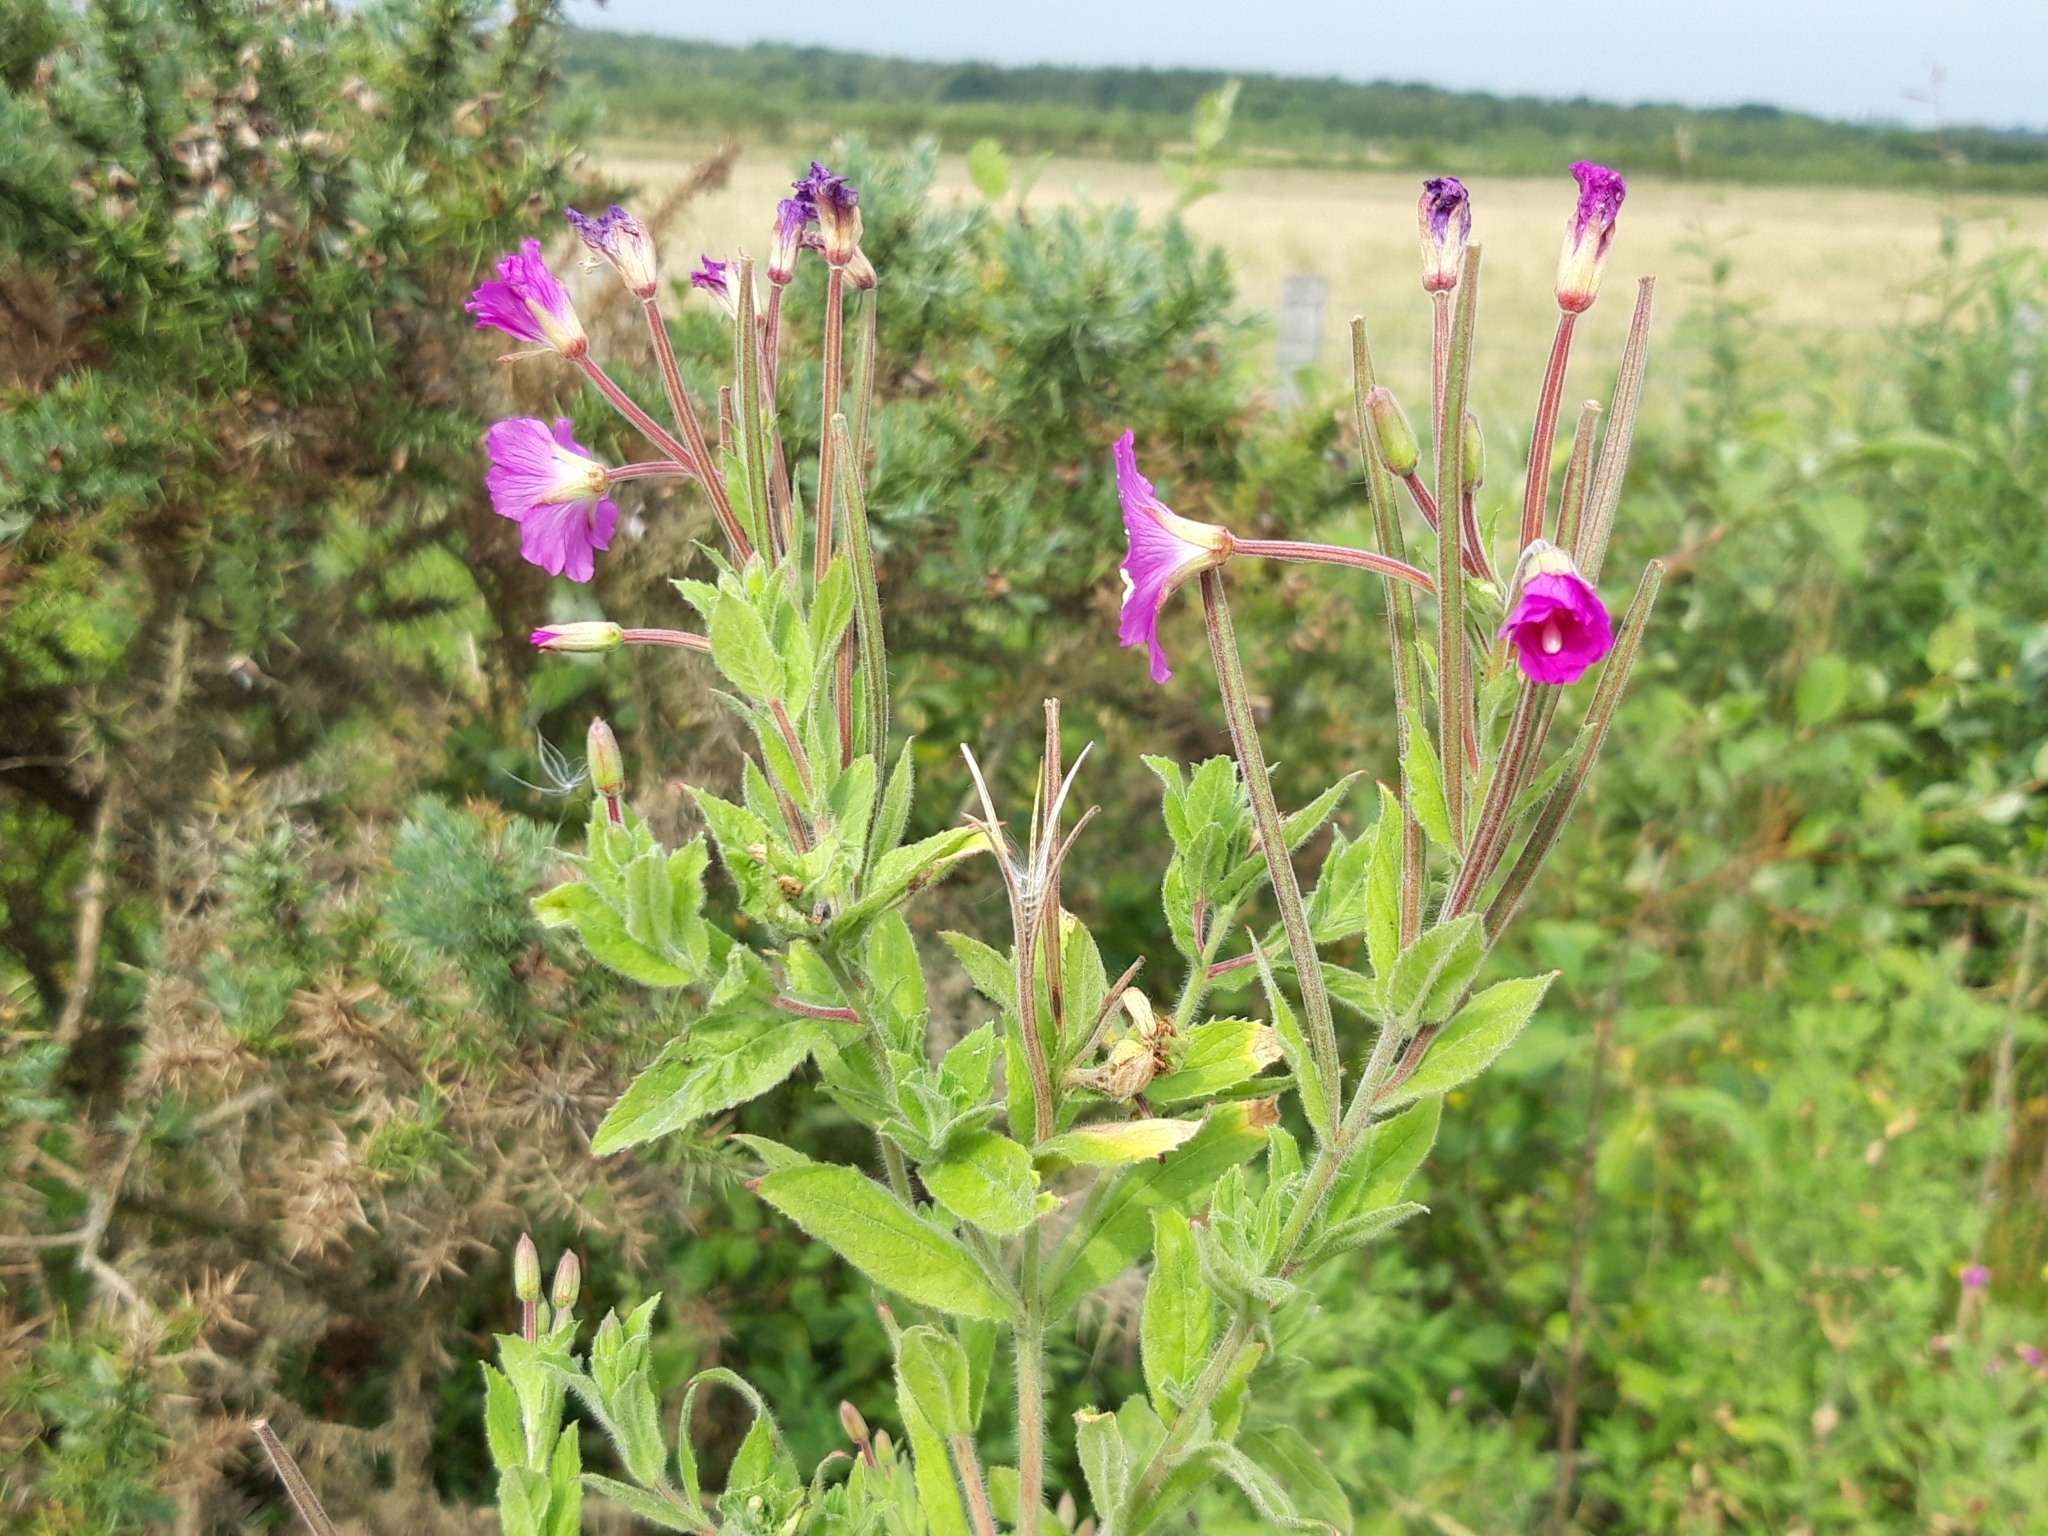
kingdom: Plantae
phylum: Tracheophyta
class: Magnoliopsida
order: Myrtales
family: Onagraceae
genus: Epilobium
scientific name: Epilobium hirsutum
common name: Great willowherb
